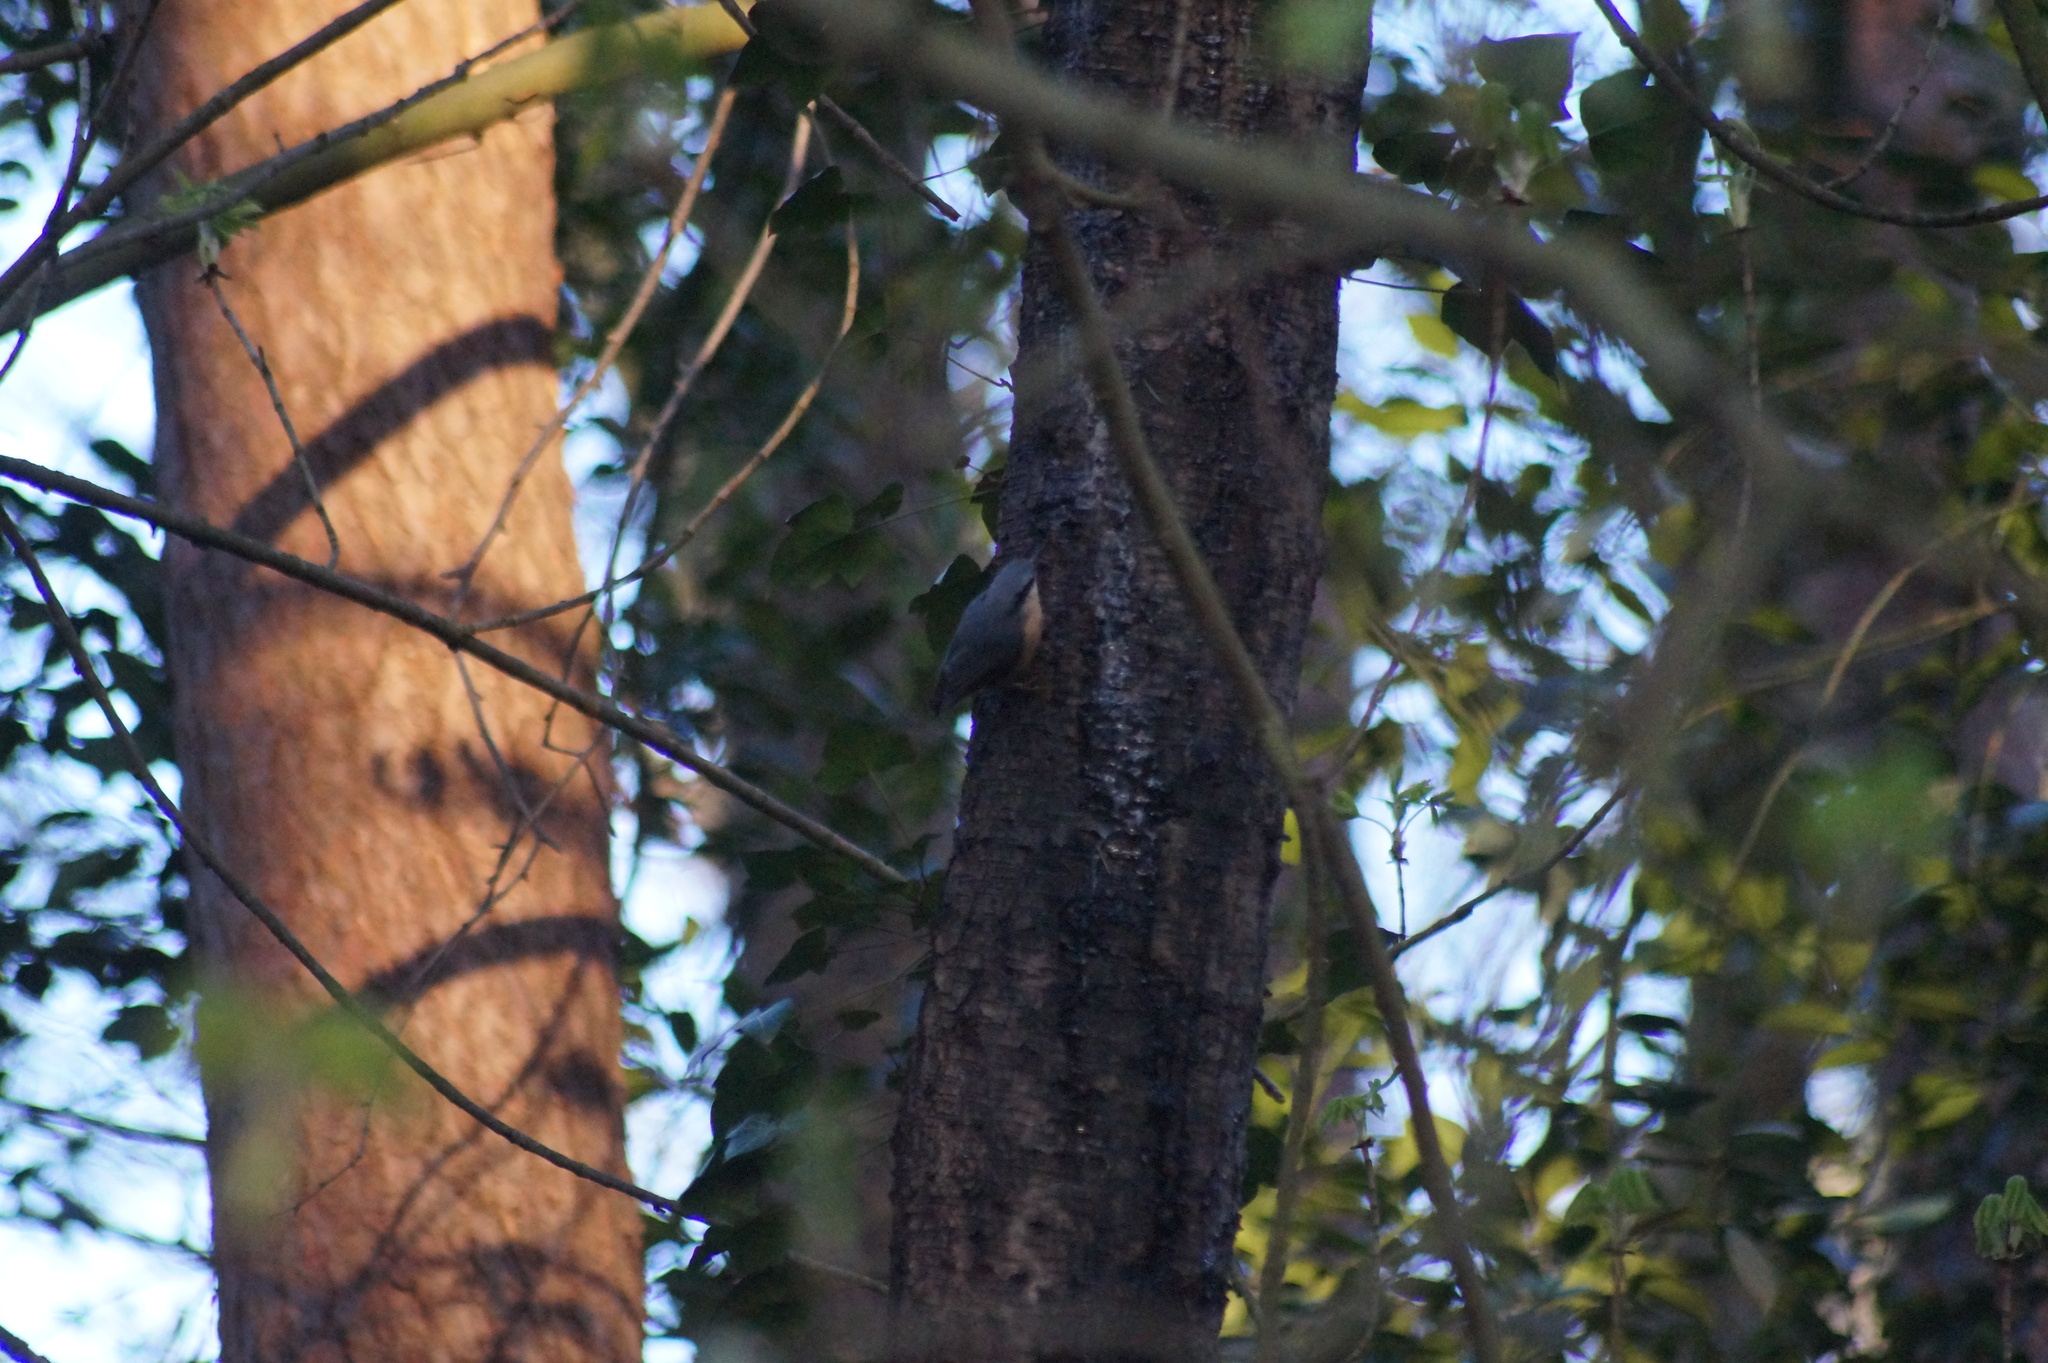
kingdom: Animalia
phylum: Chordata
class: Aves
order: Passeriformes
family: Sittidae
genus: Sitta
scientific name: Sitta europaea
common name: Eurasian nuthatch
